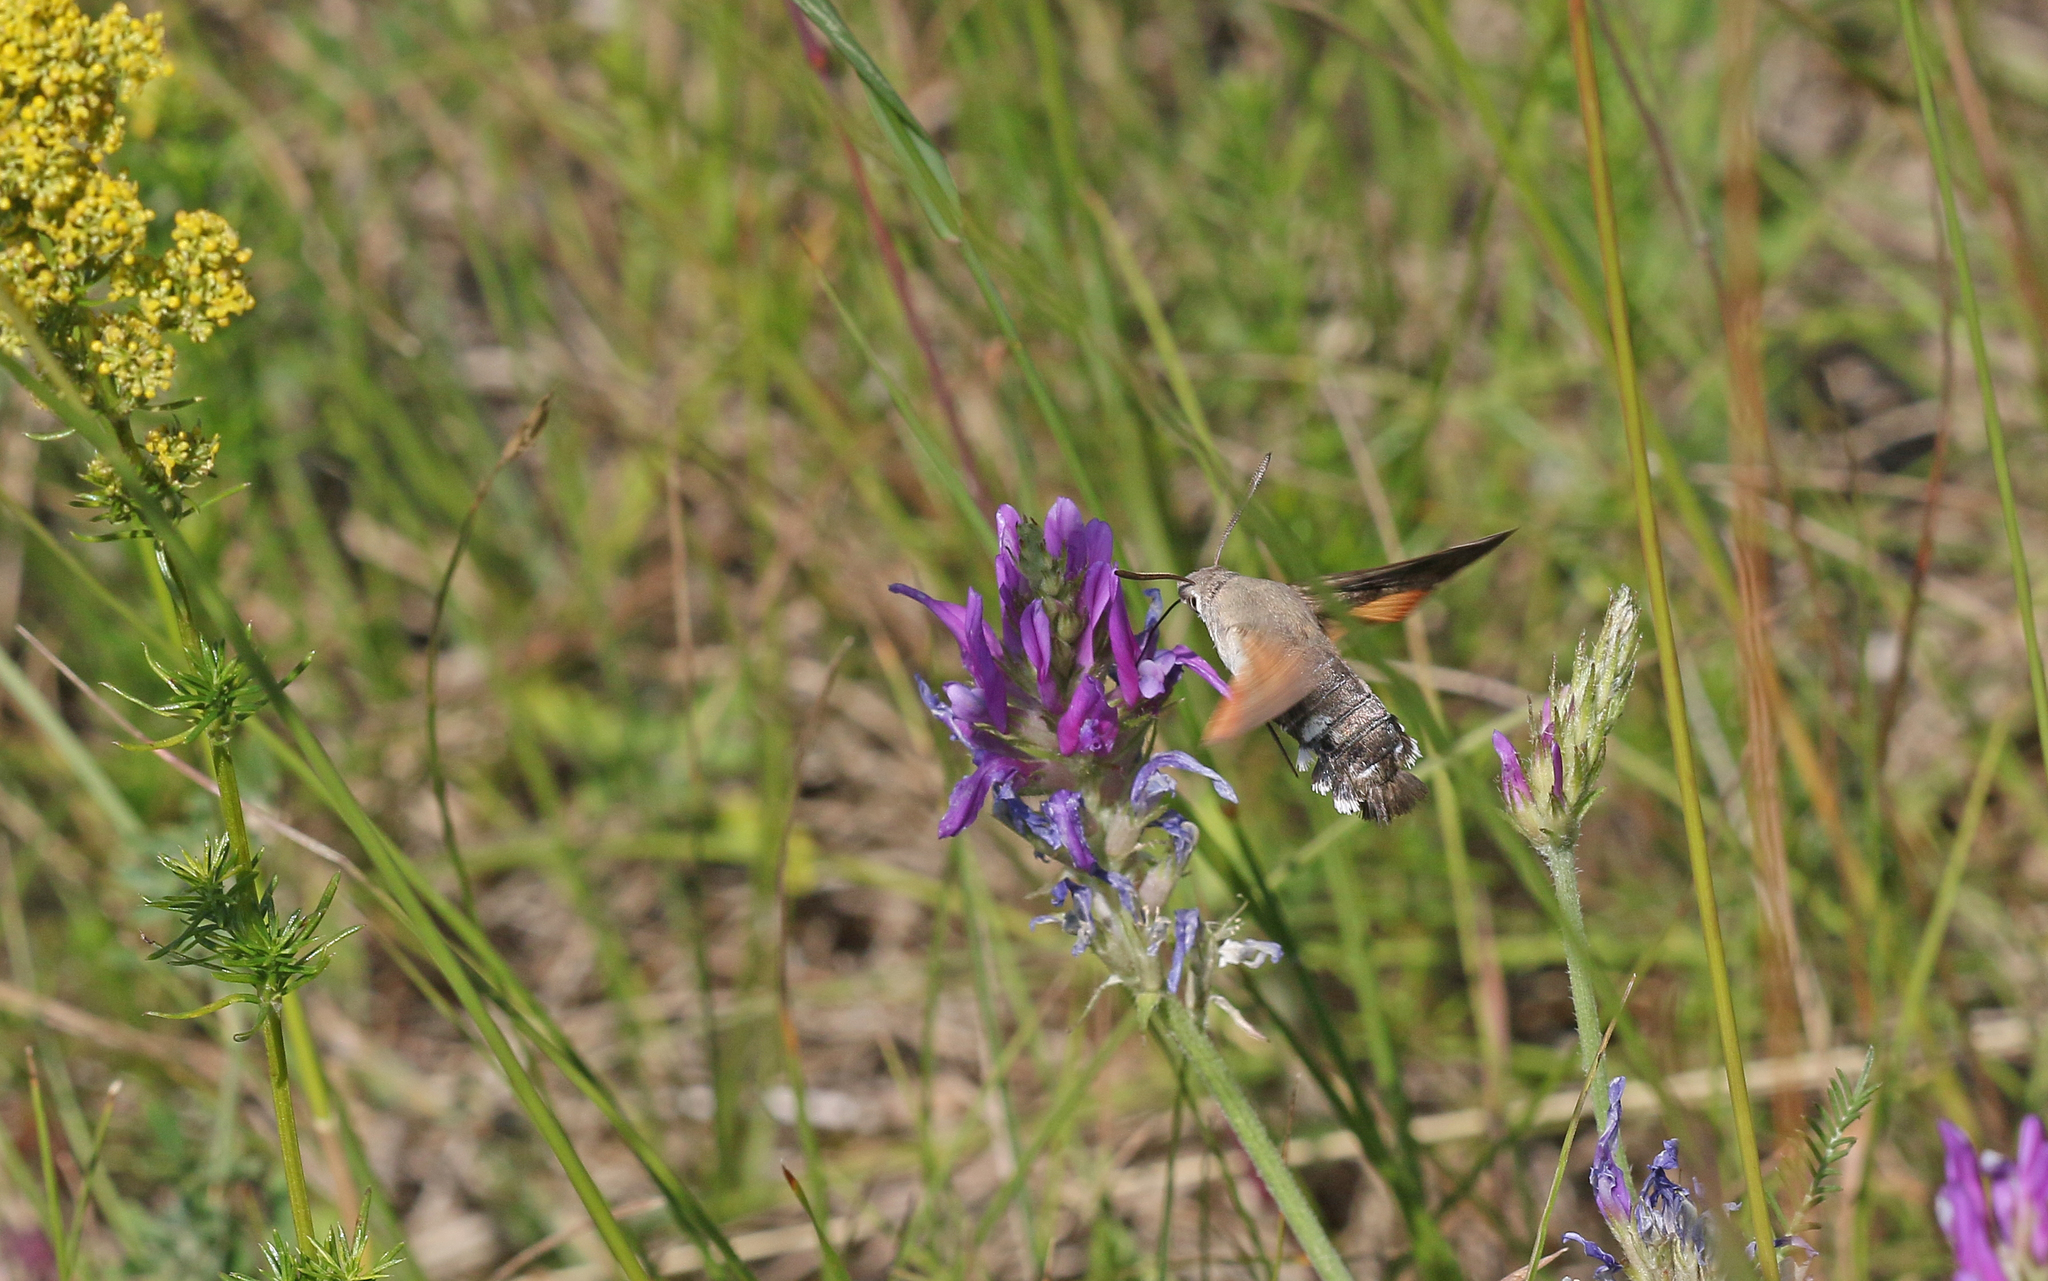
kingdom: Animalia
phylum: Arthropoda
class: Insecta
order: Lepidoptera
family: Sphingidae
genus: Macroglossum
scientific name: Macroglossum stellatarum
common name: Humming-bird hawk-moth
